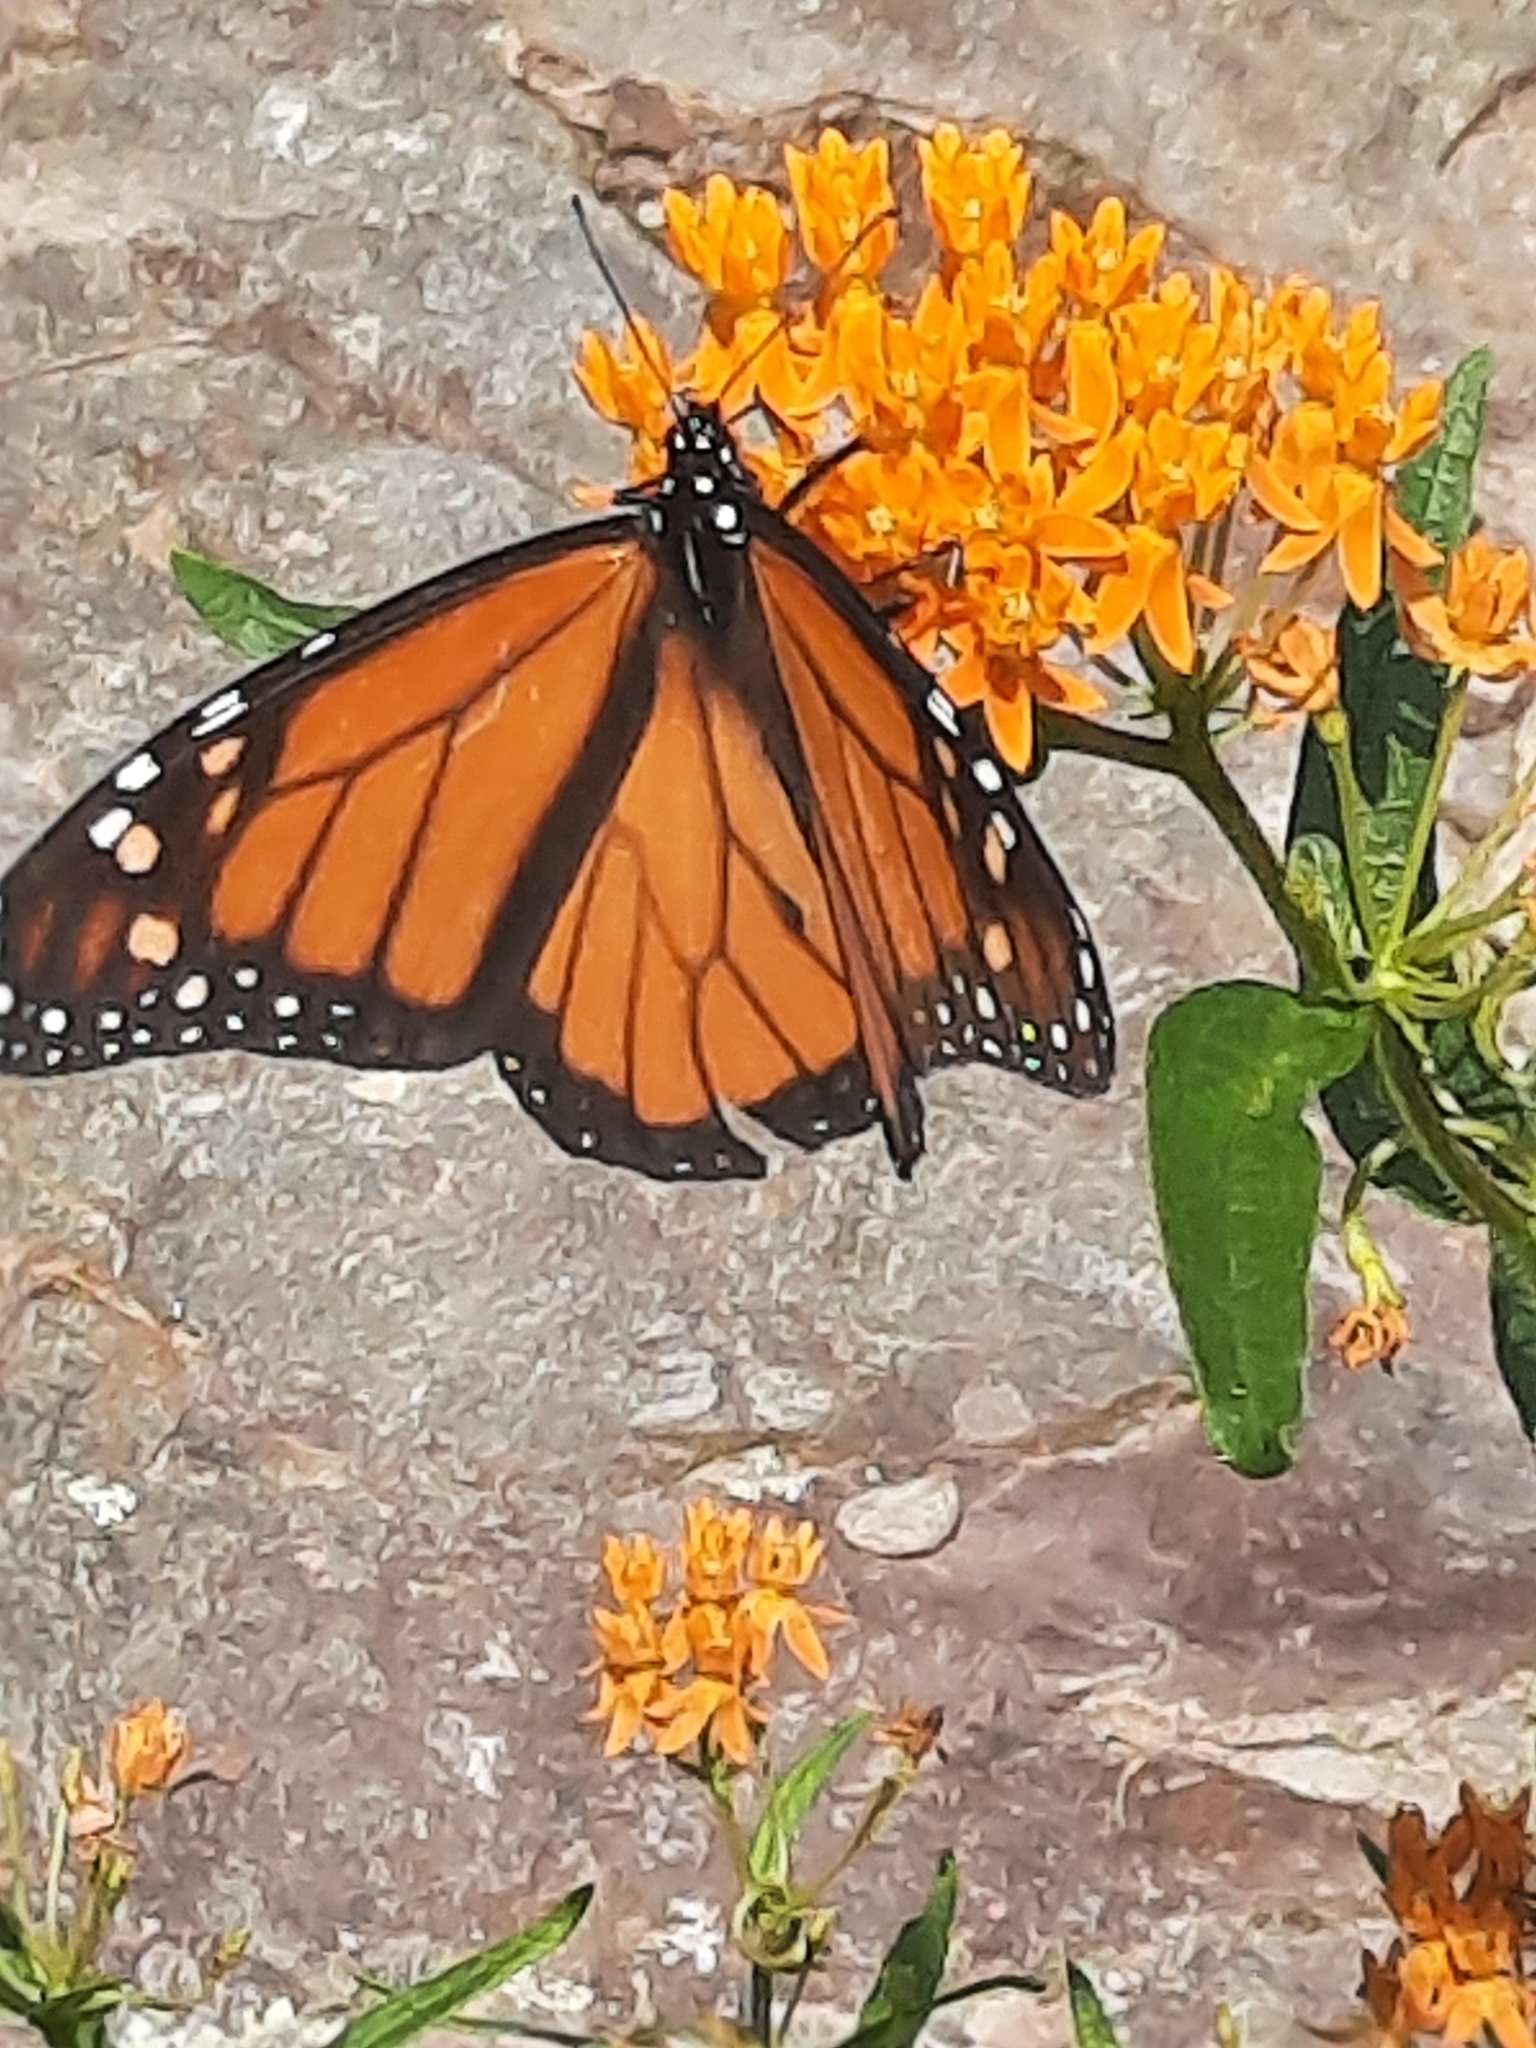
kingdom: Animalia
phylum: Arthropoda
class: Insecta
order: Lepidoptera
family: Nymphalidae
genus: Danaus
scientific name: Danaus plexippus
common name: Monarch
